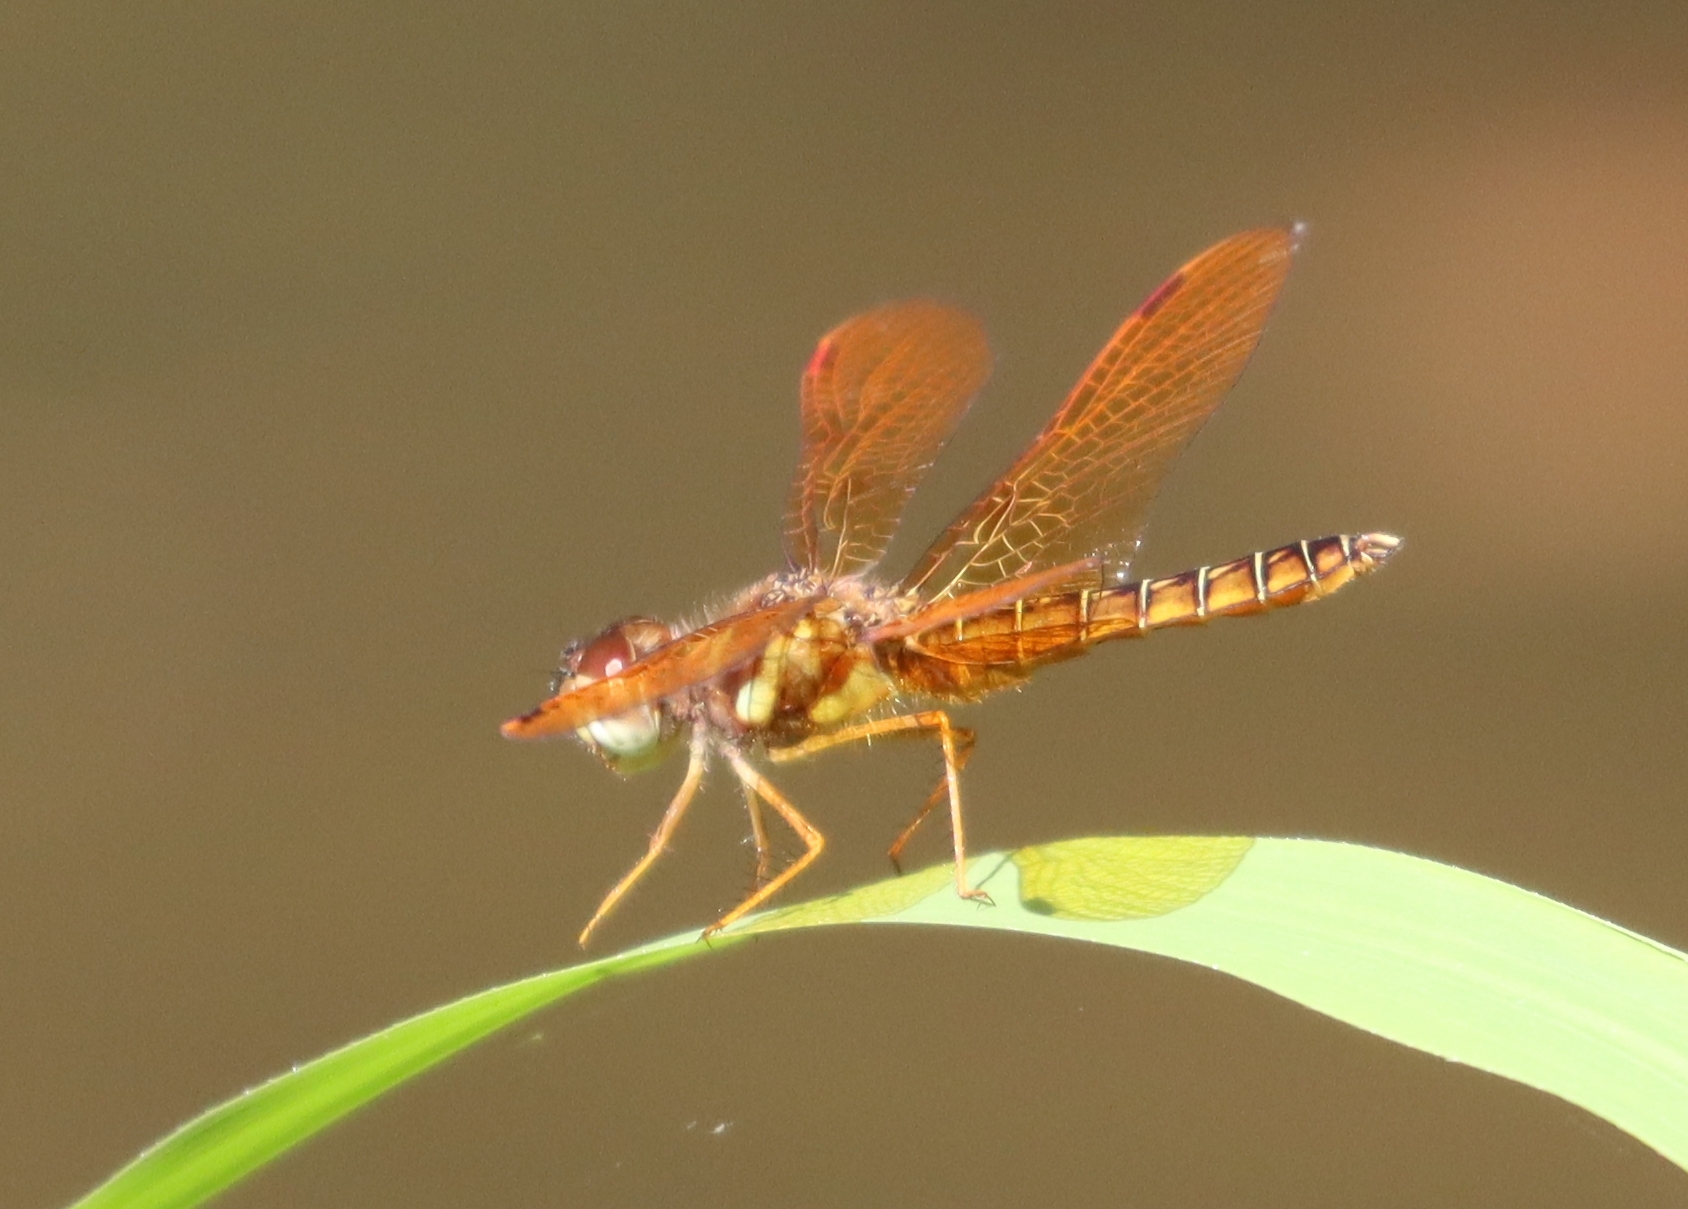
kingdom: Animalia
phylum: Arthropoda
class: Insecta
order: Odonata
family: Libellulidae
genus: Perithemis
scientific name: Perithemis tenera
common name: Eastern amberwing
